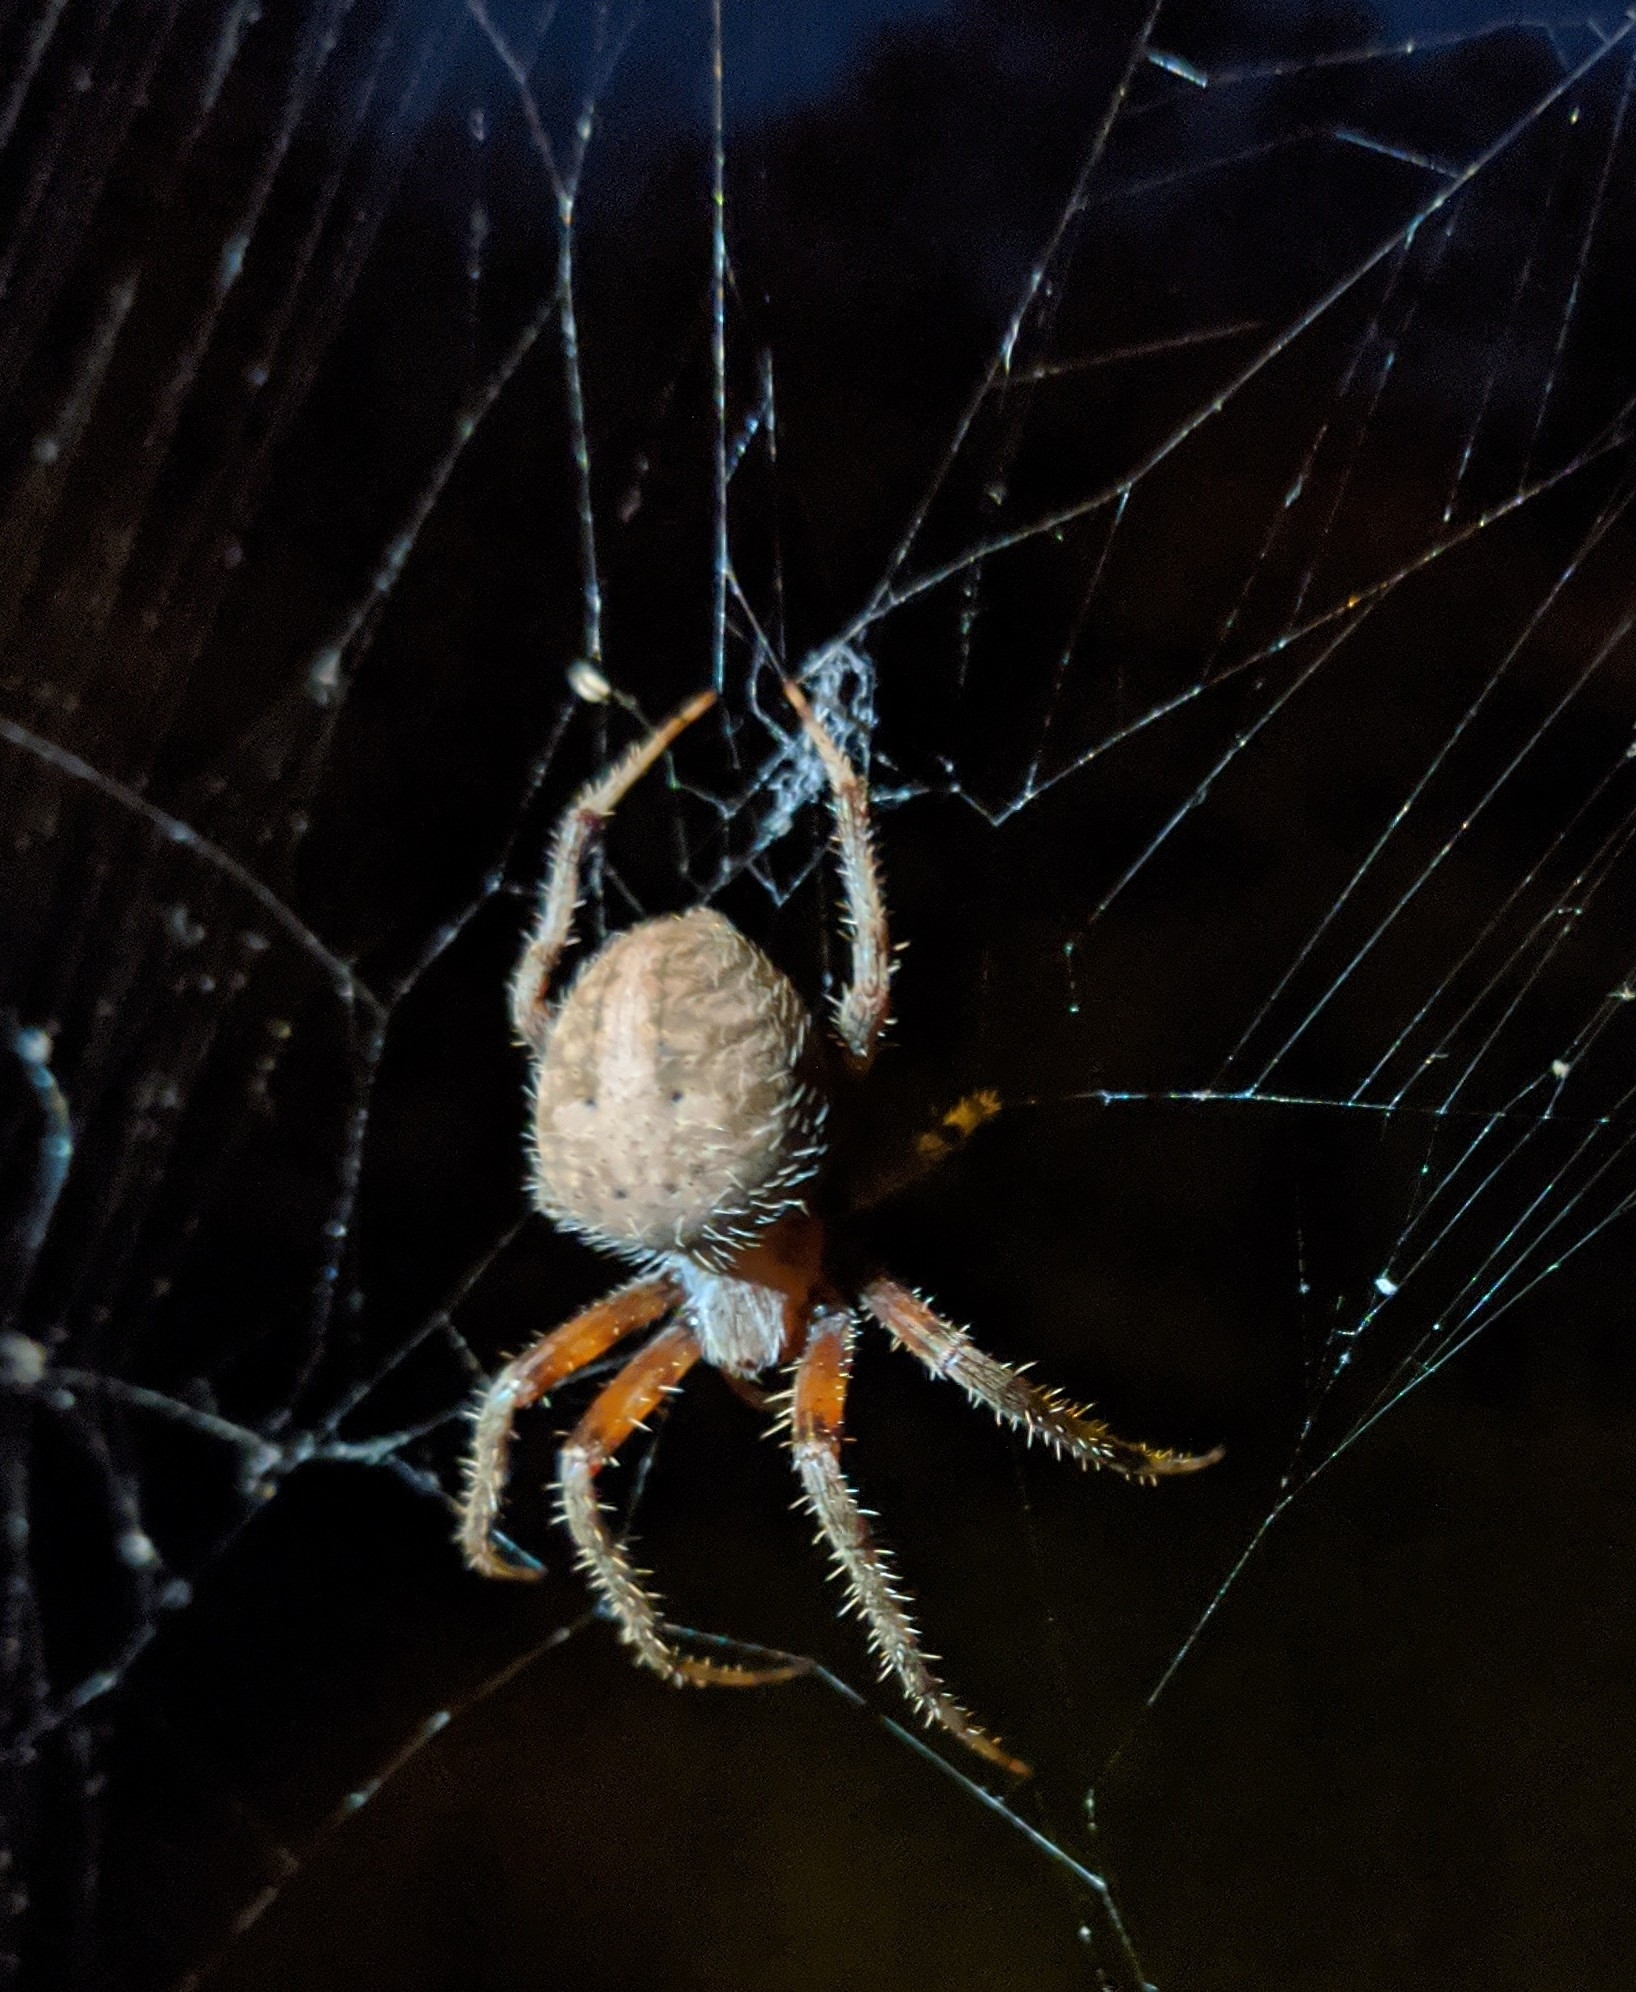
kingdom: Animalia
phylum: Arthropoda
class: Arachnida
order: Araneae
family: Araneidae
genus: Neoscona
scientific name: Neoscona crucifera
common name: Spotted orbweaver
